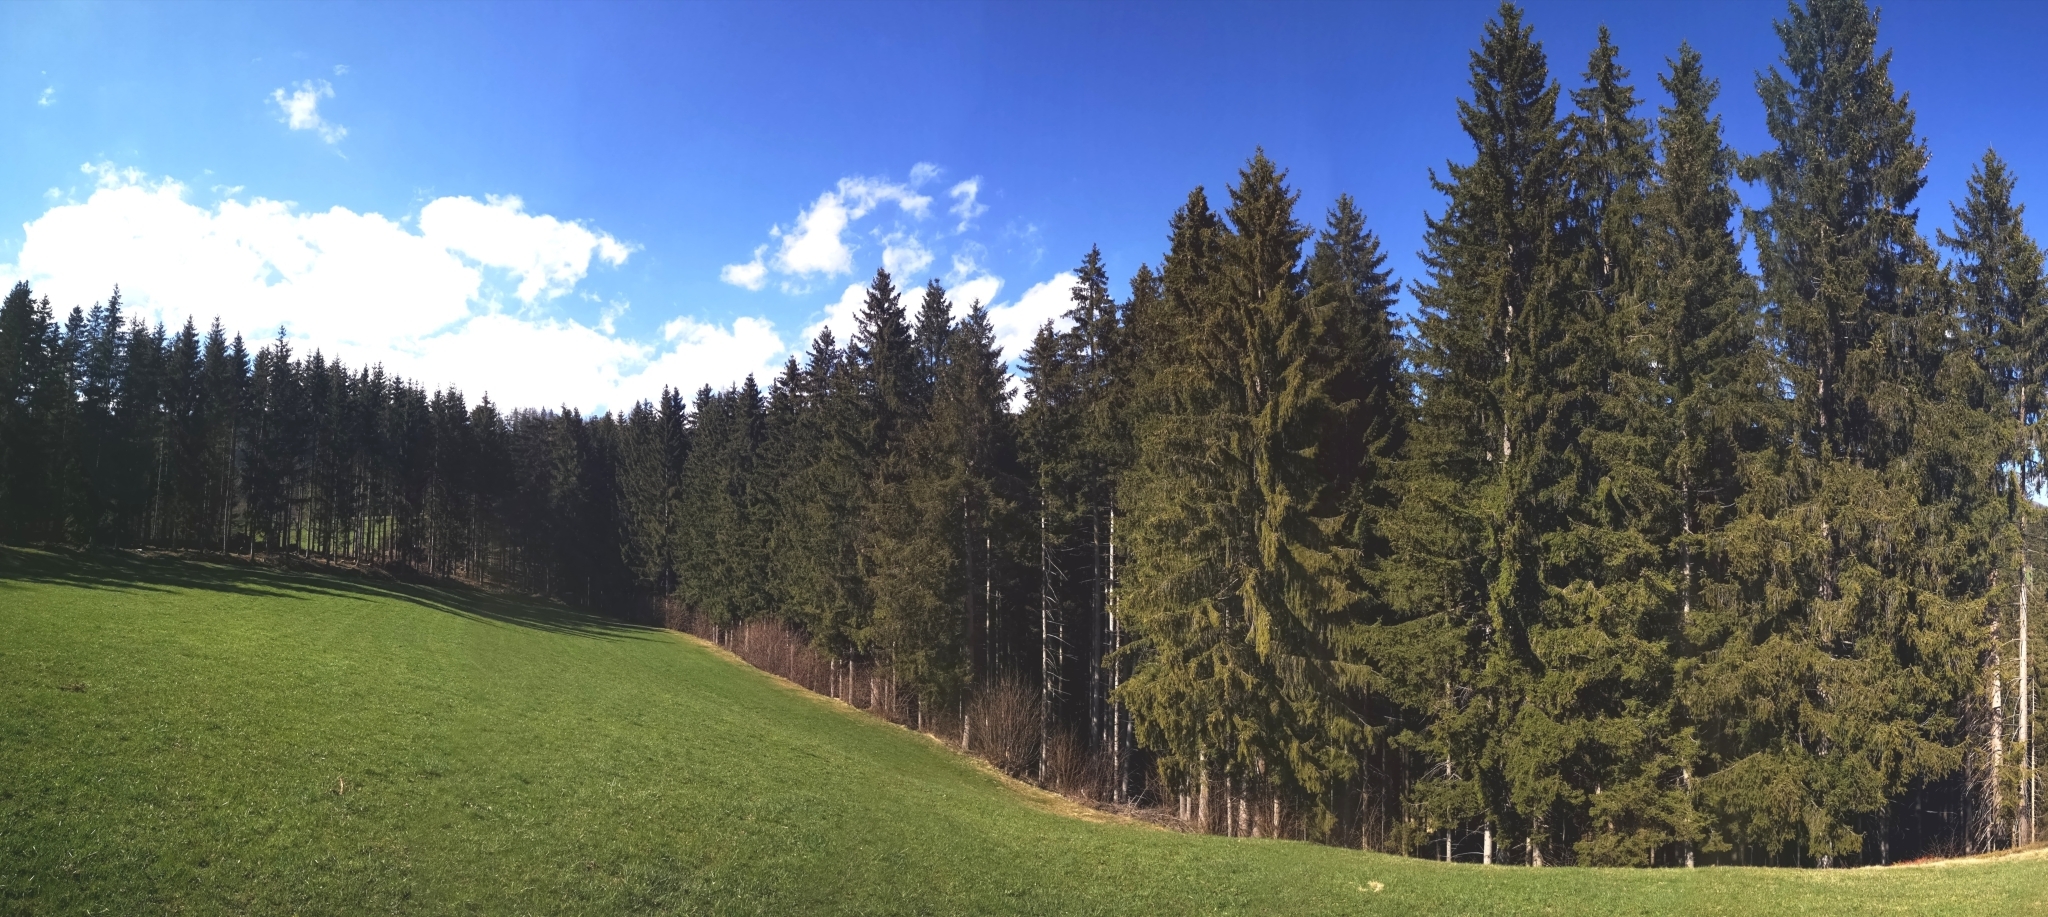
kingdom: Animalia
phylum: Chordata
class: Aves
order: Passeriformes
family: Turdidae
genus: Turdus
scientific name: Turdus philomelos
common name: Song thrush
